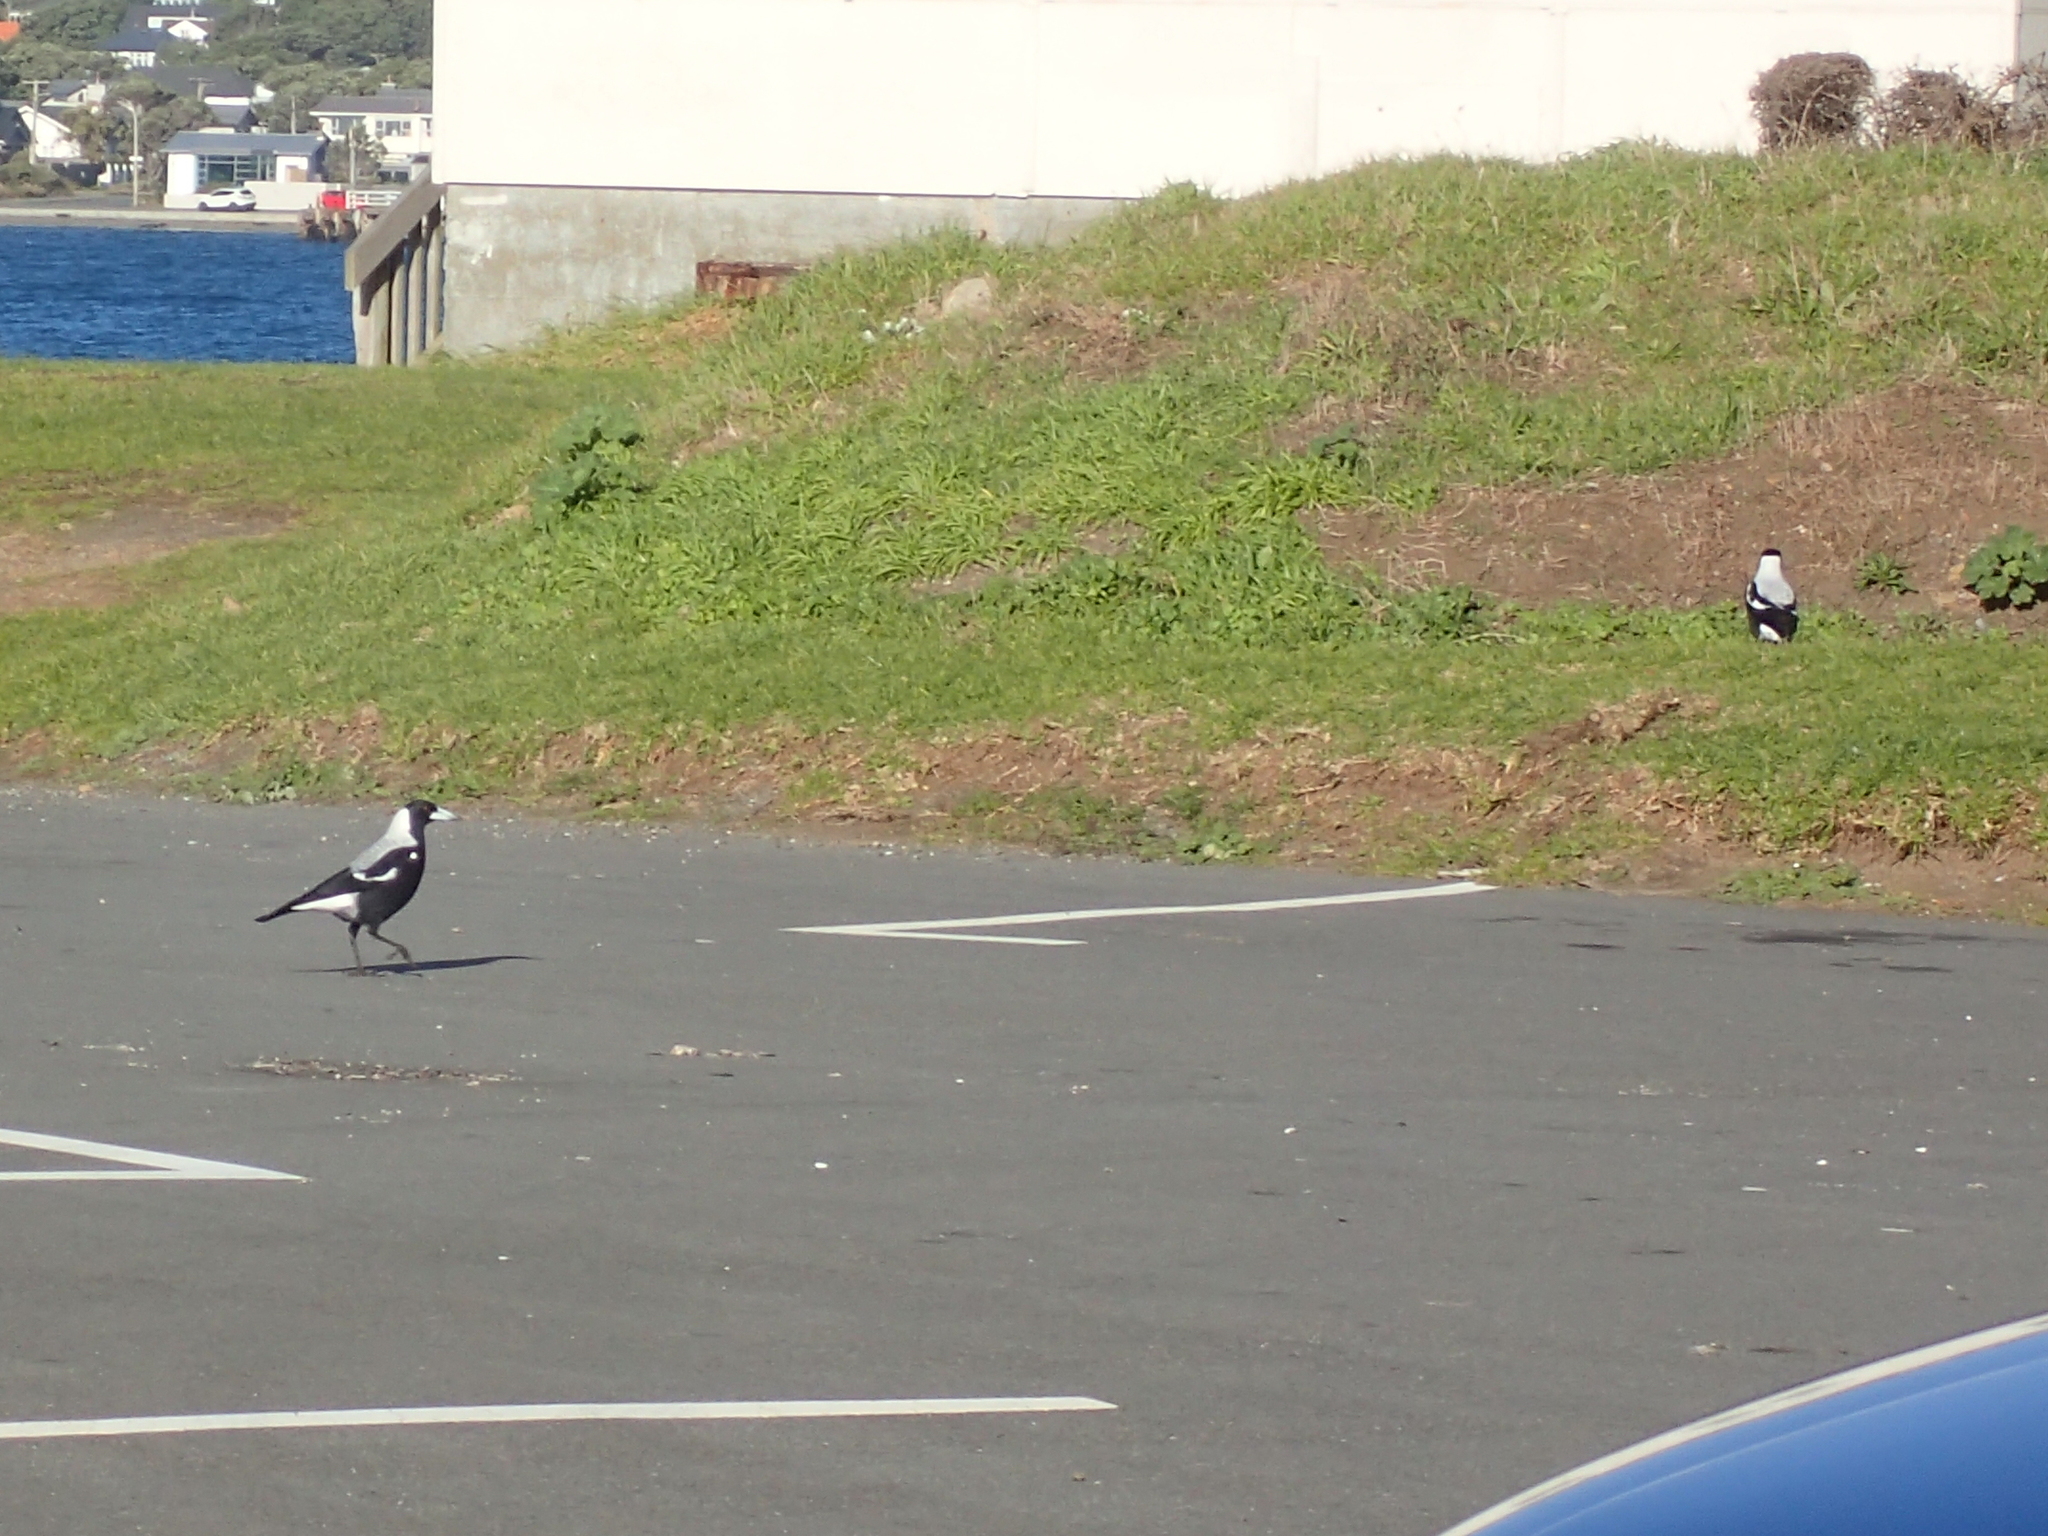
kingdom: Animalia
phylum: Chordata
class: Aves
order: Passeriformes
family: Cracticidae
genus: Gymnorhina
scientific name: Gymnorhina tibicen
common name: Australian magpie
